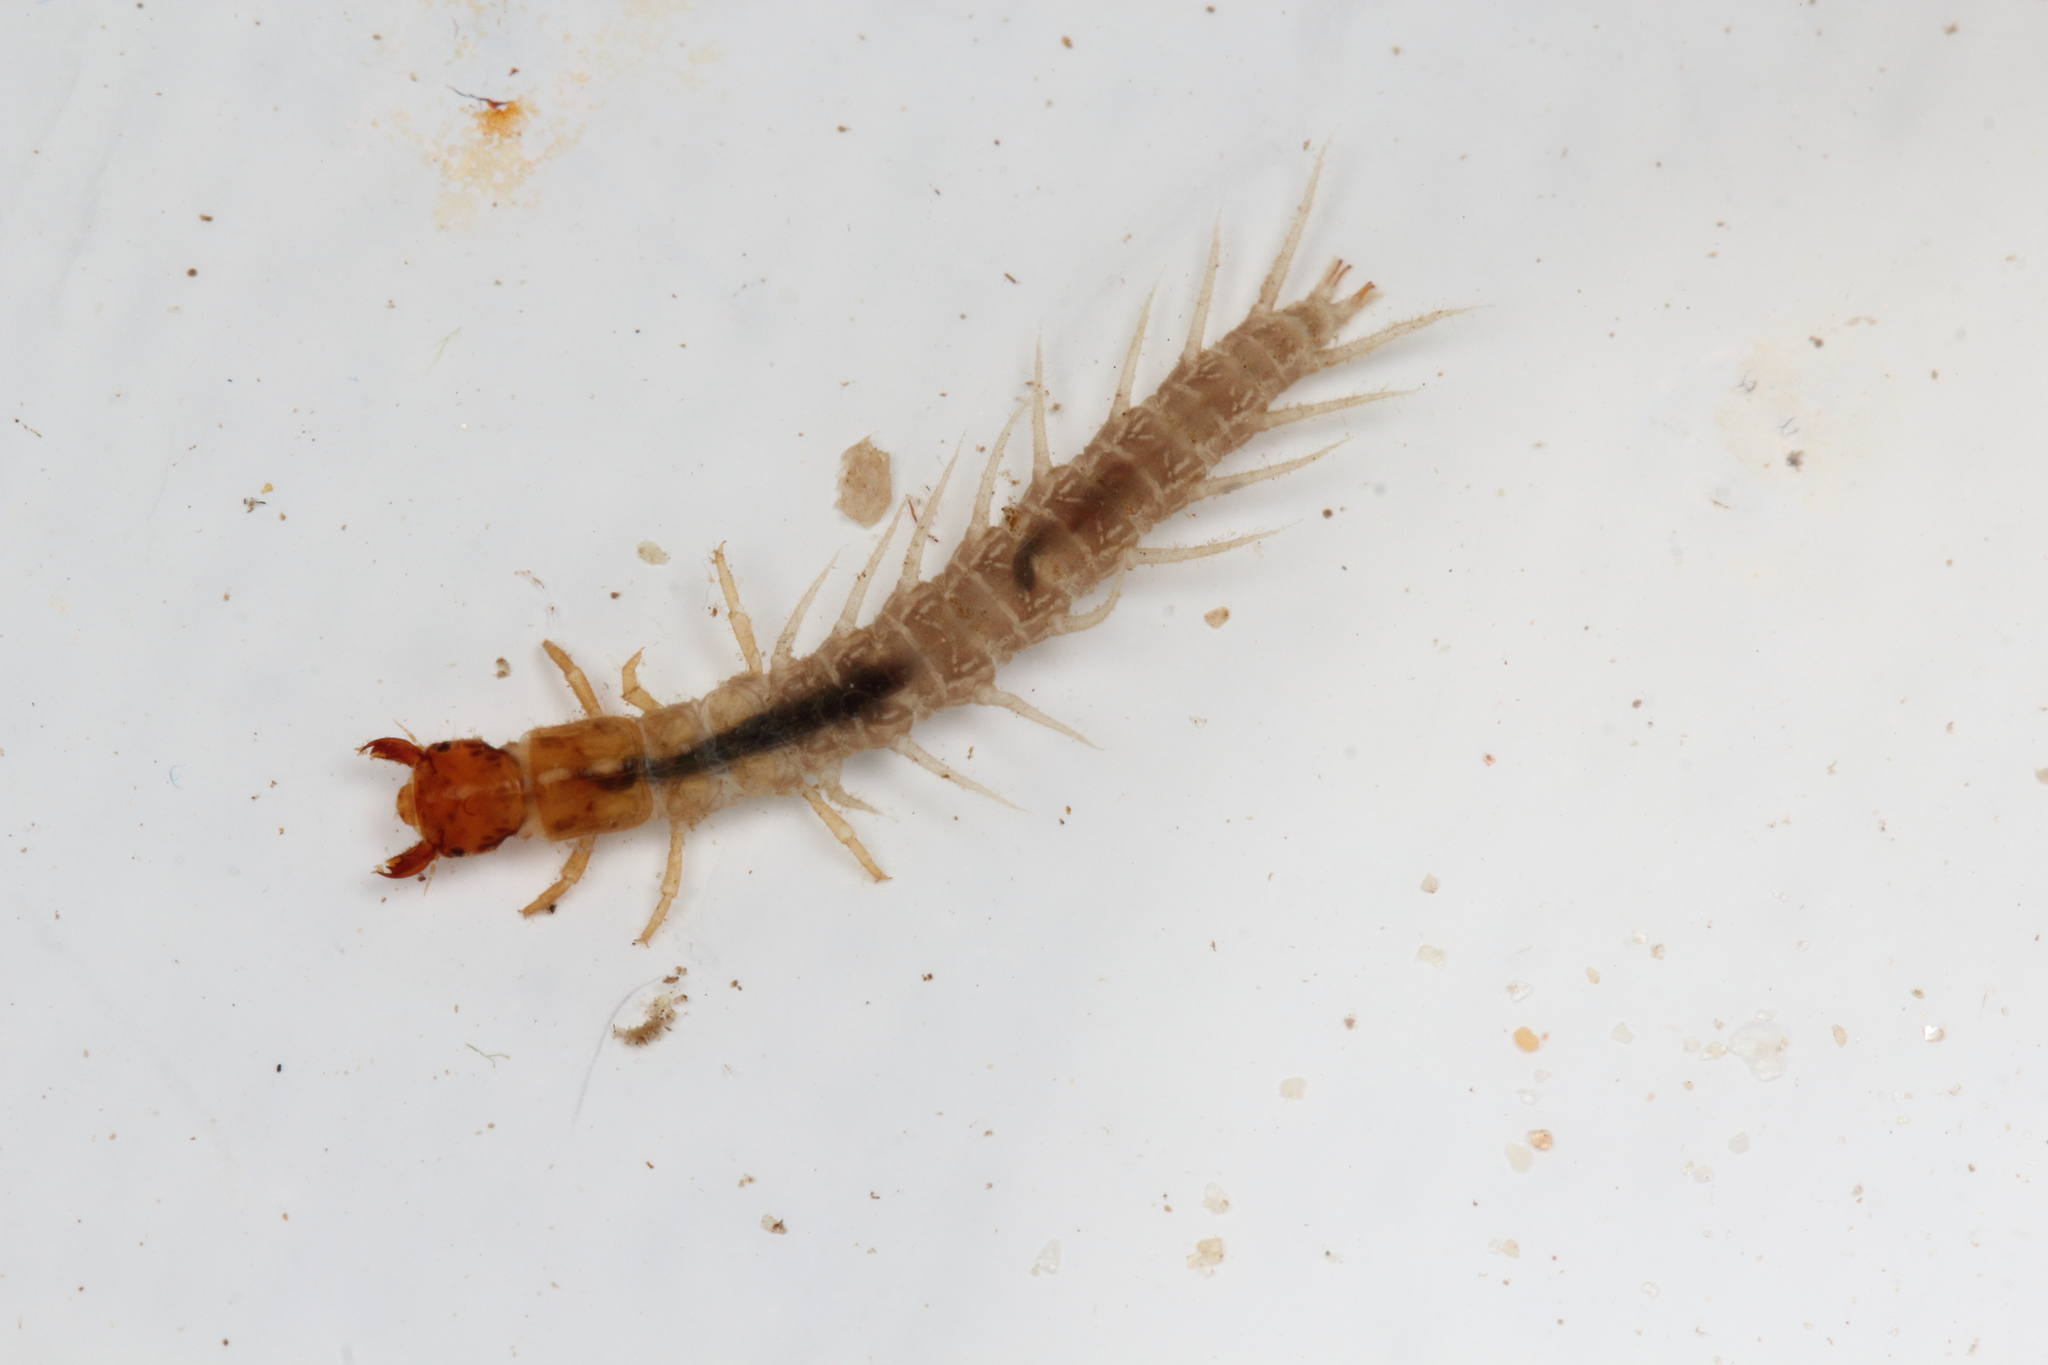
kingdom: Animalia
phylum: Arthropoda
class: Insecta
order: Megaloptera
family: Corydalidae
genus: Archichauliodes
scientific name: Archichauliodes diversus
